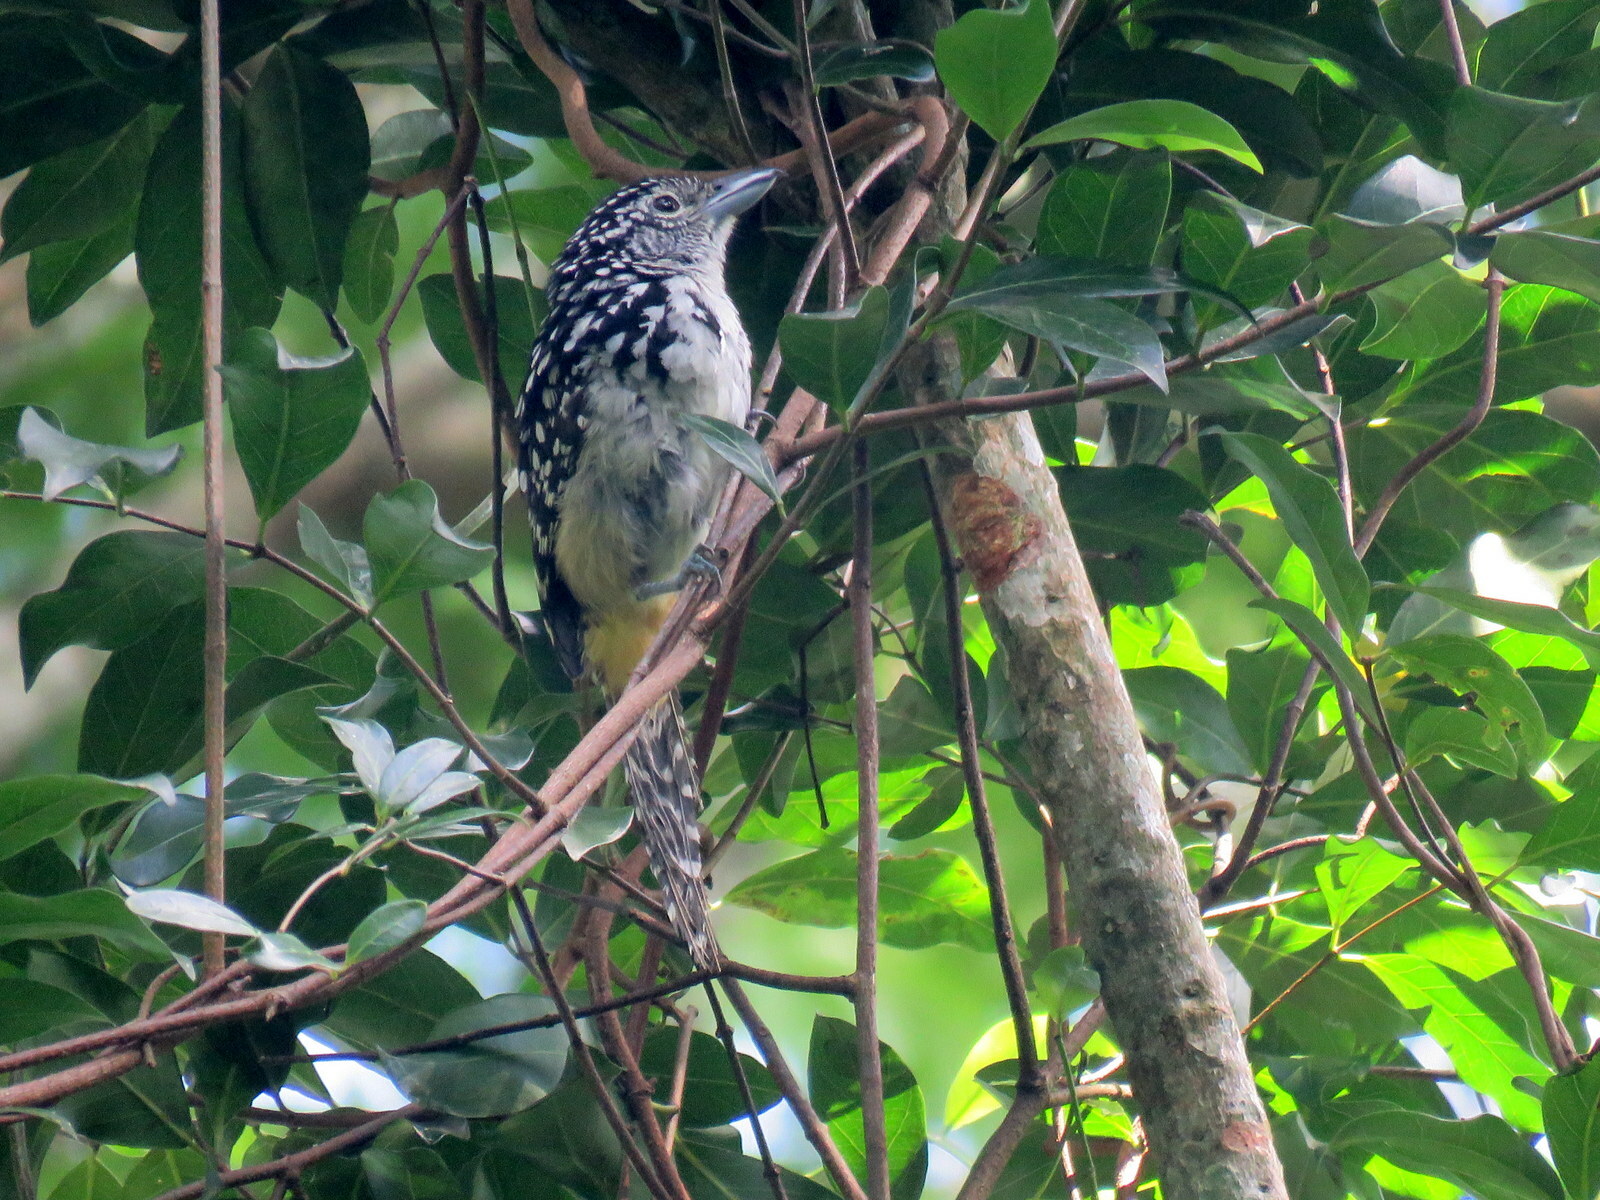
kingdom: Animalia
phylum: Chordata
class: Aves
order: Passeriformes
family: Thamnophilidae
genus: Hypoedaleus
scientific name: Hypoedaleus guttatus
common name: Spot-backed antshrike
